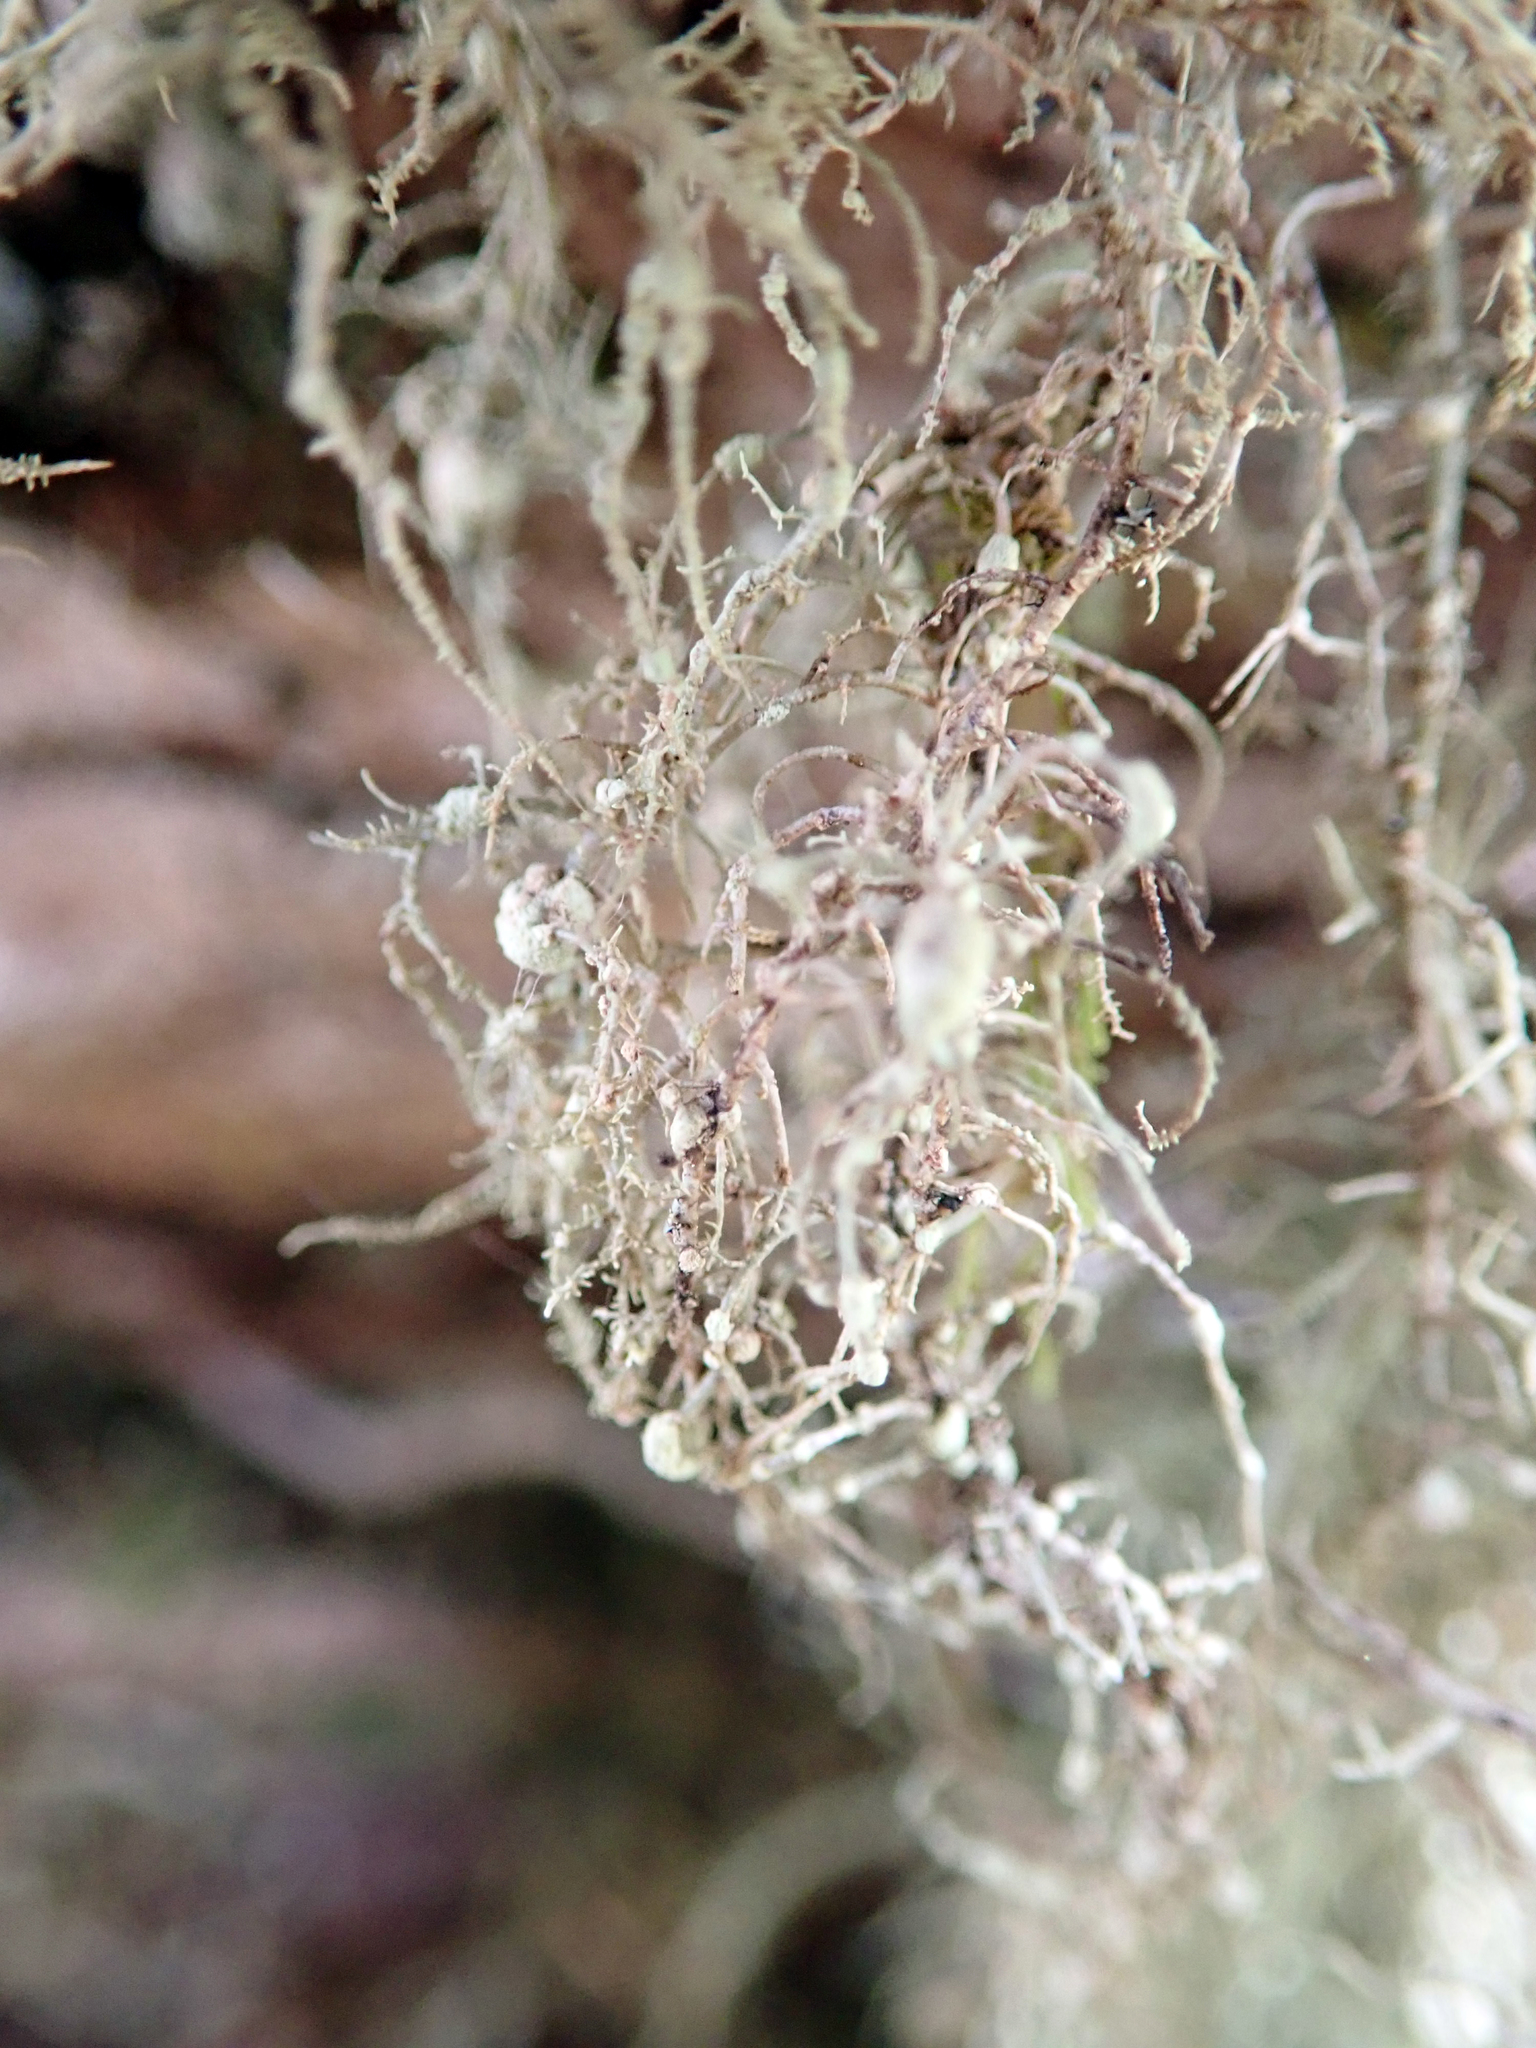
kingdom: Fungi
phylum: Ascomycota
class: Lecanoromycetes
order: Lecanorales
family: Parmeliaceae
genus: Usnea
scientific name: Usnea subeciliata
